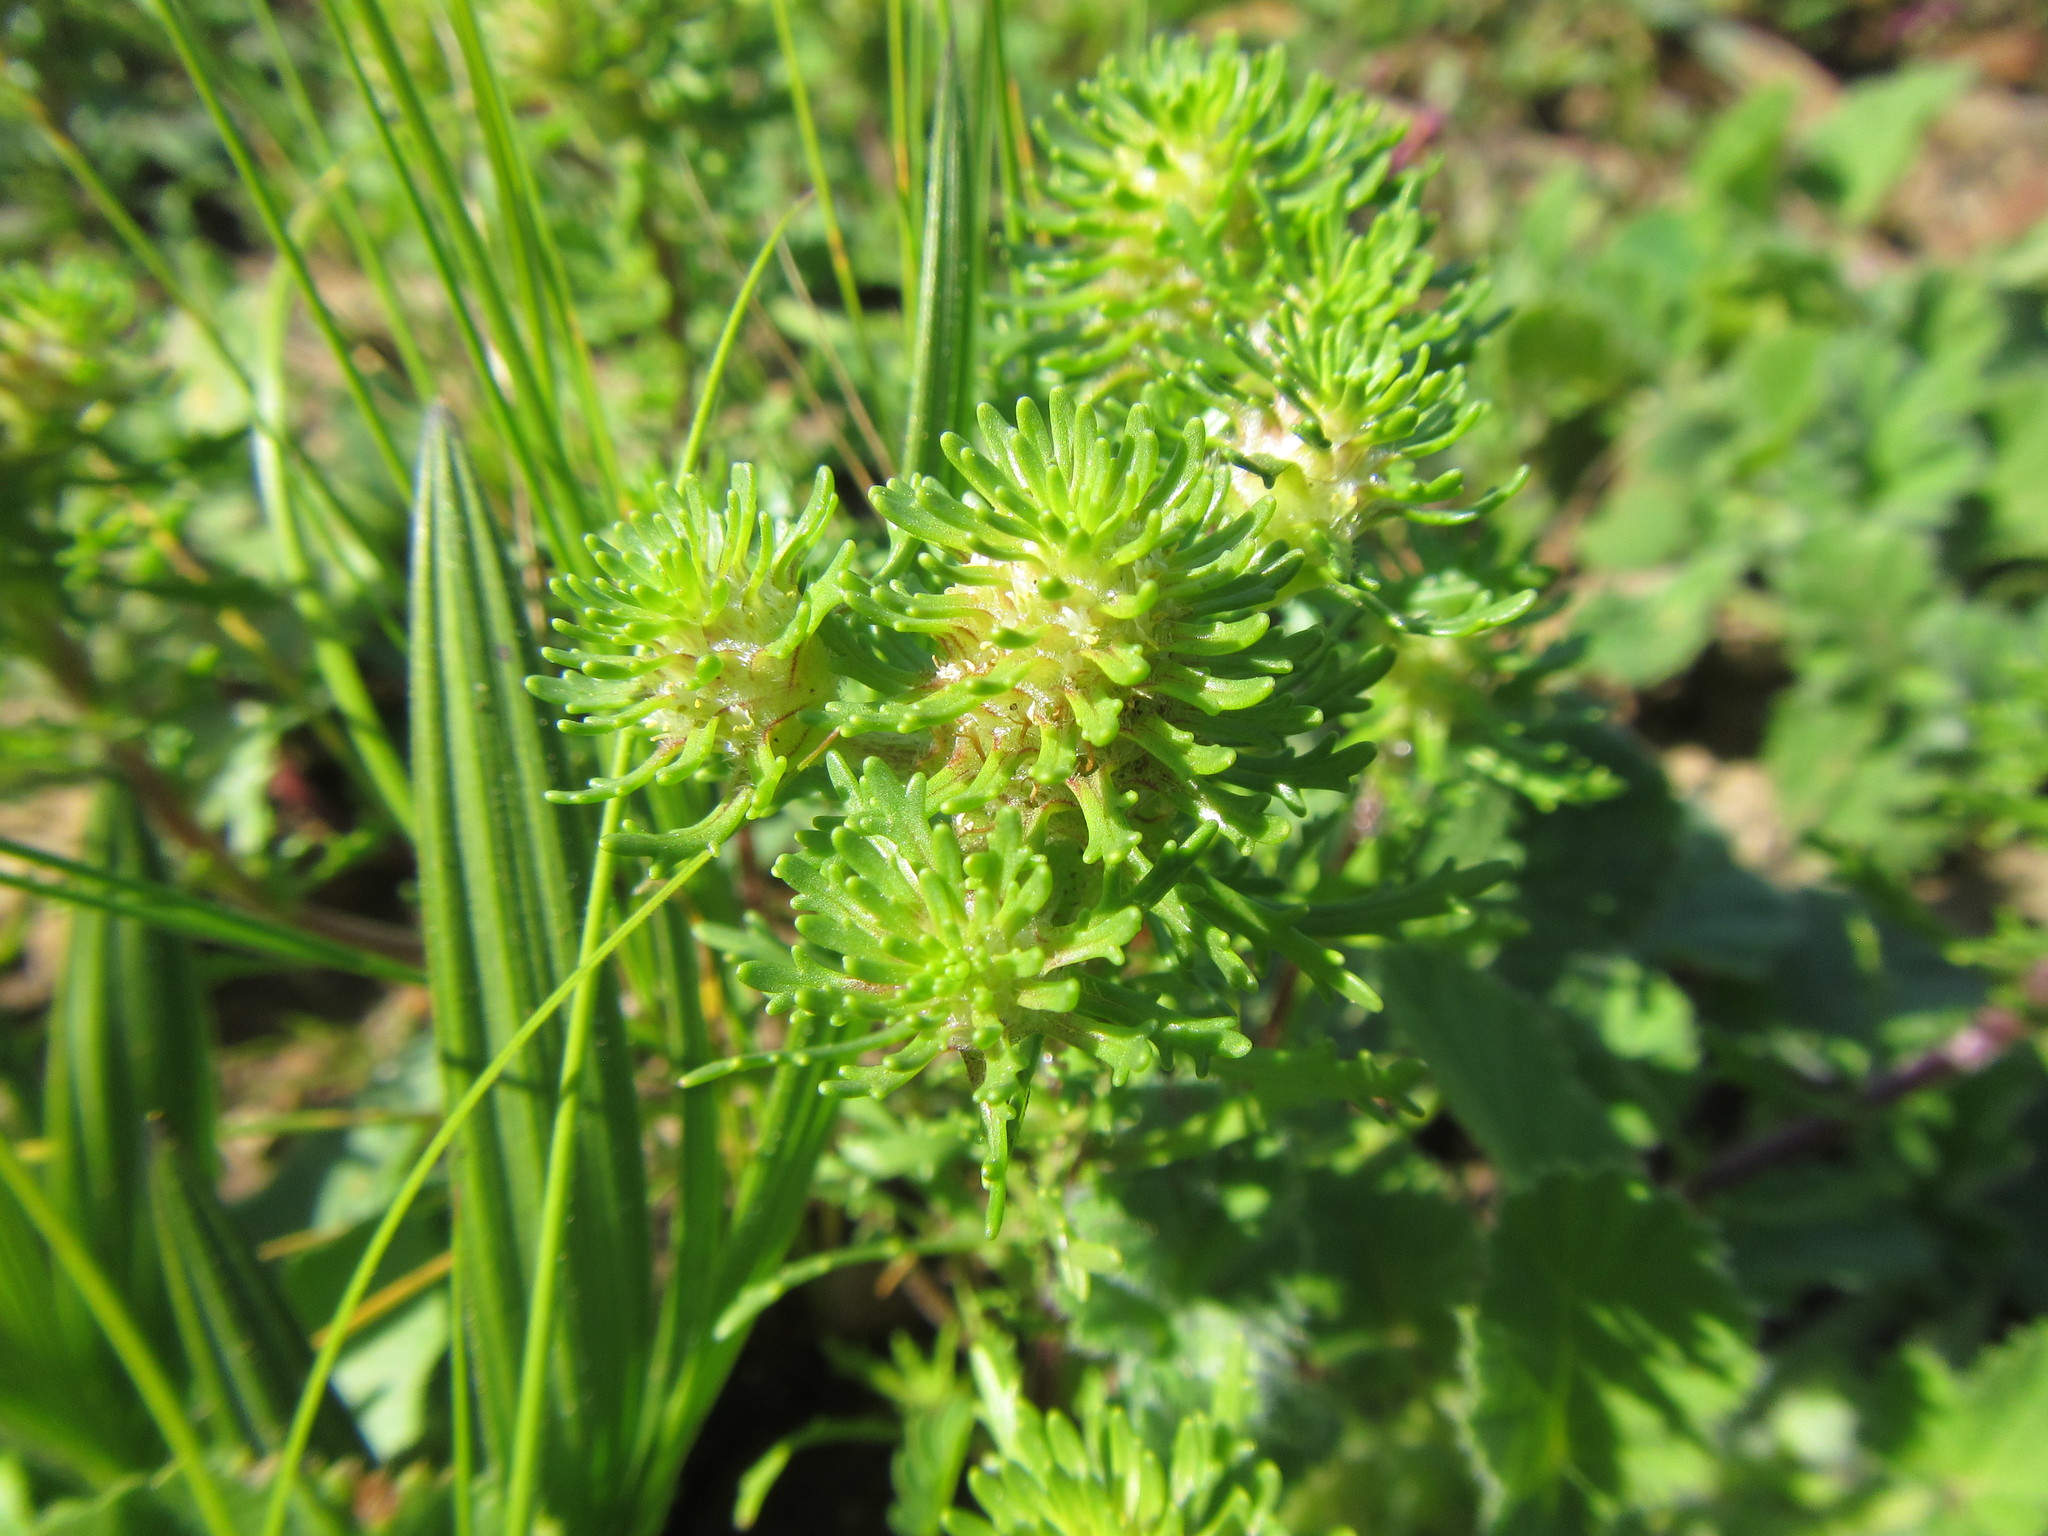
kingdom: Plantae
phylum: Tracheophyta
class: Magnoliopsida
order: Lamiales
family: Scrophulariaceae
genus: Dischisma
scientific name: Dischisma capitatum
